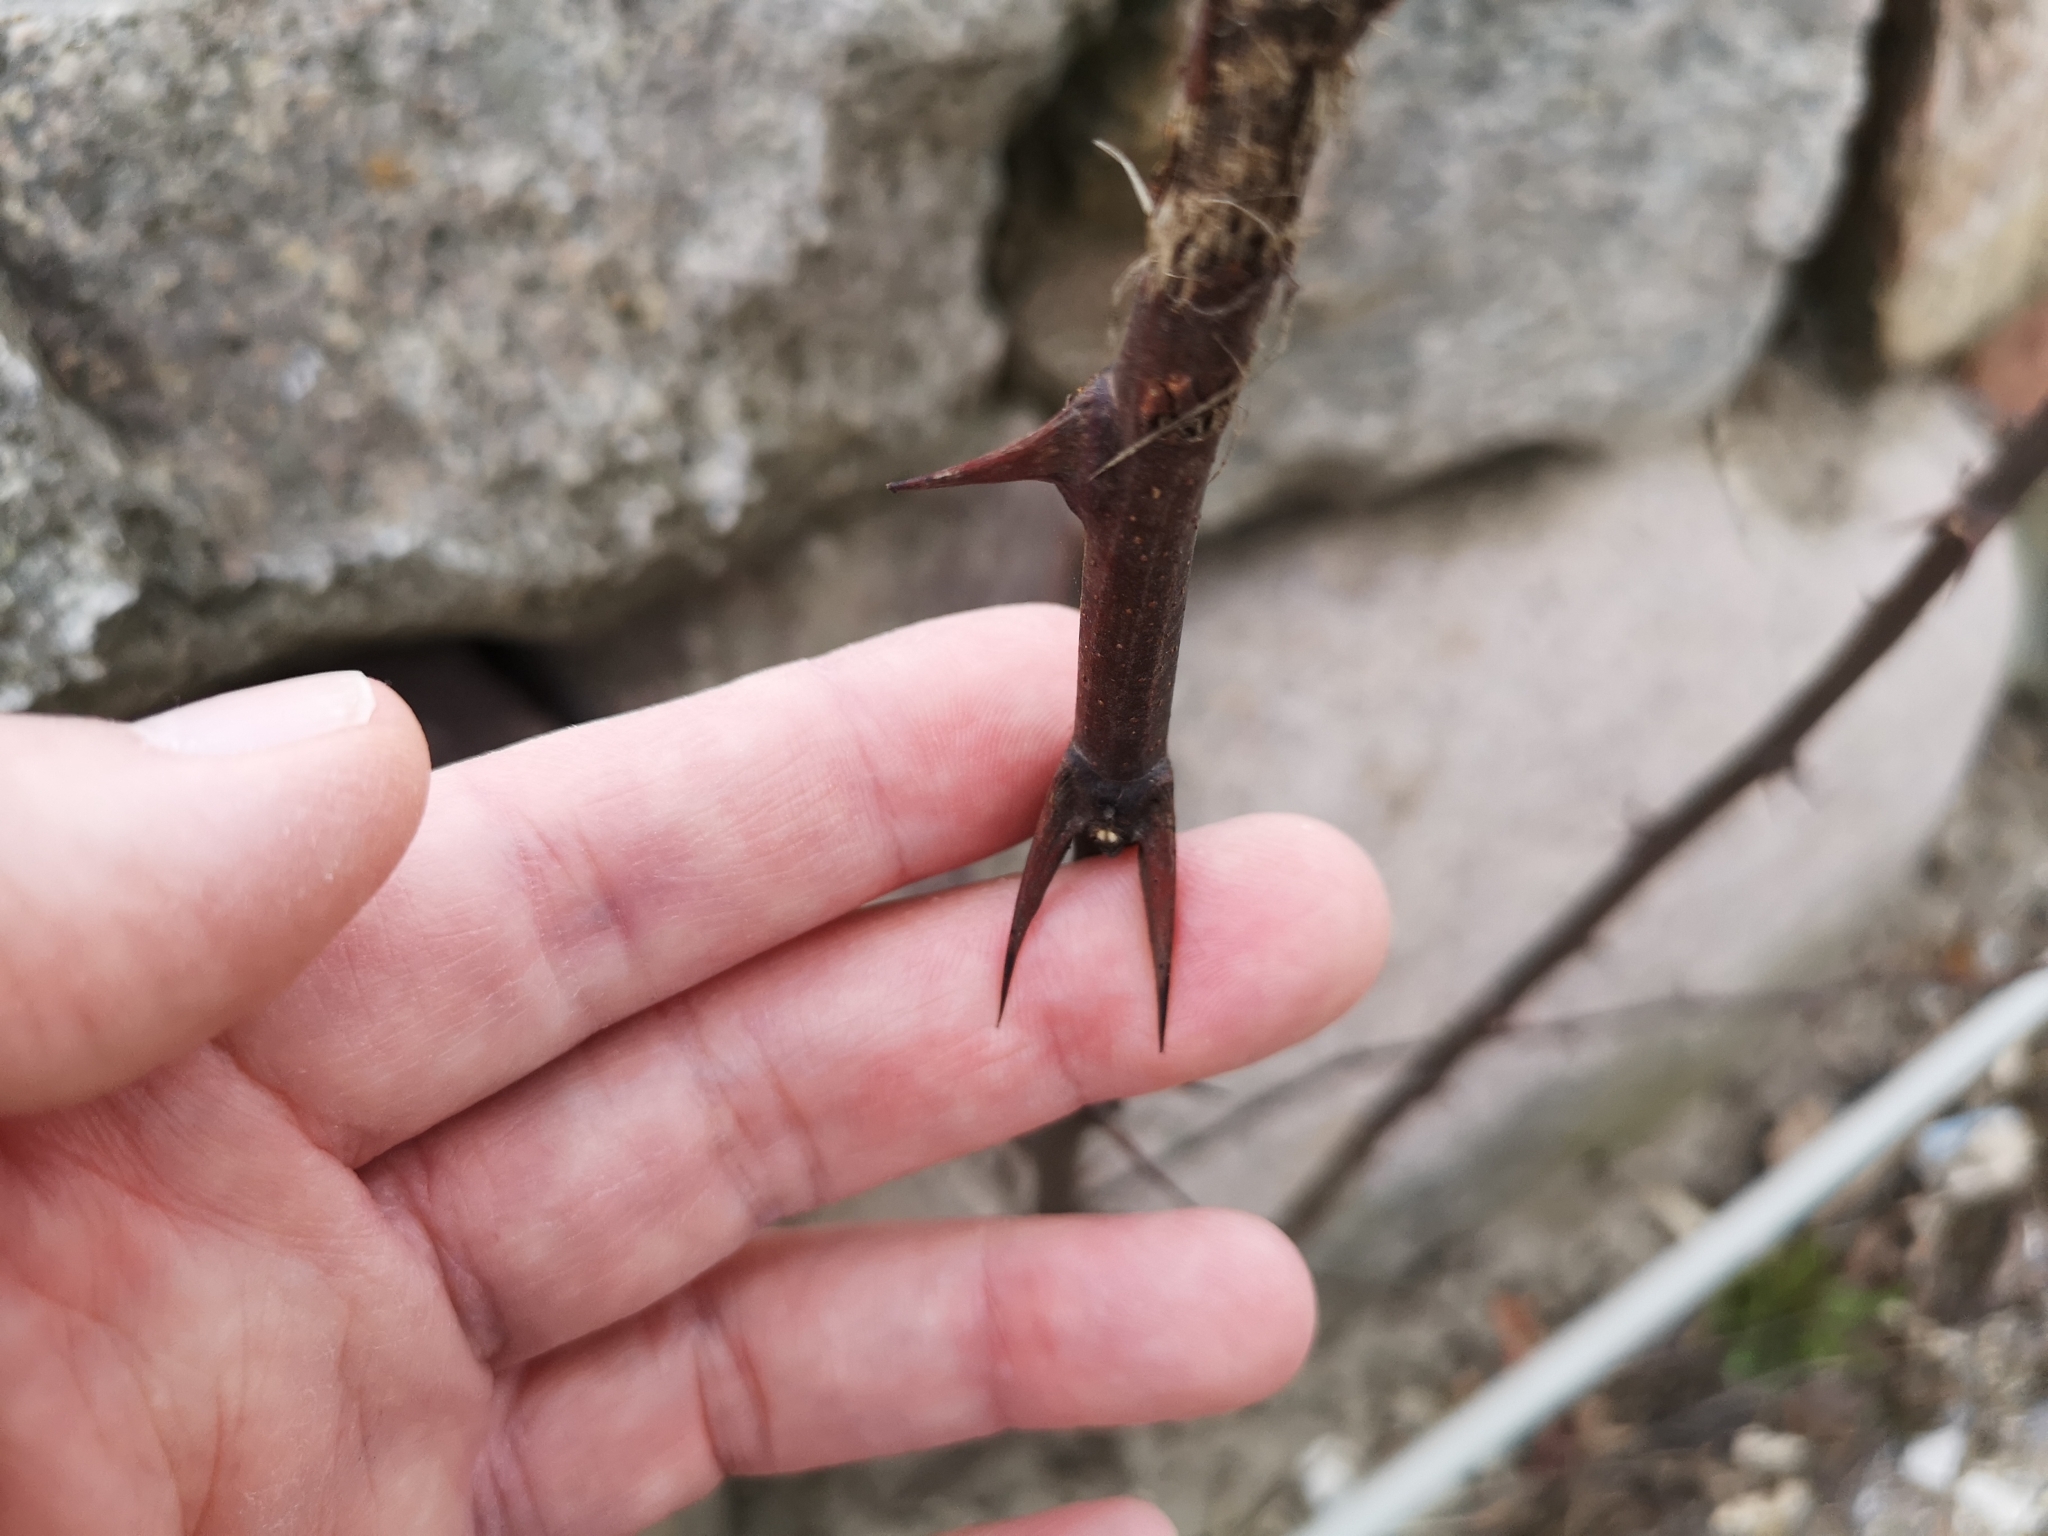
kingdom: Plantae
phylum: Tracheophyta
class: Magnoliopsida
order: Fabales
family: Fabaceae
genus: Robinia
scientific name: Robinia pseudoacacia
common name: Black locust
